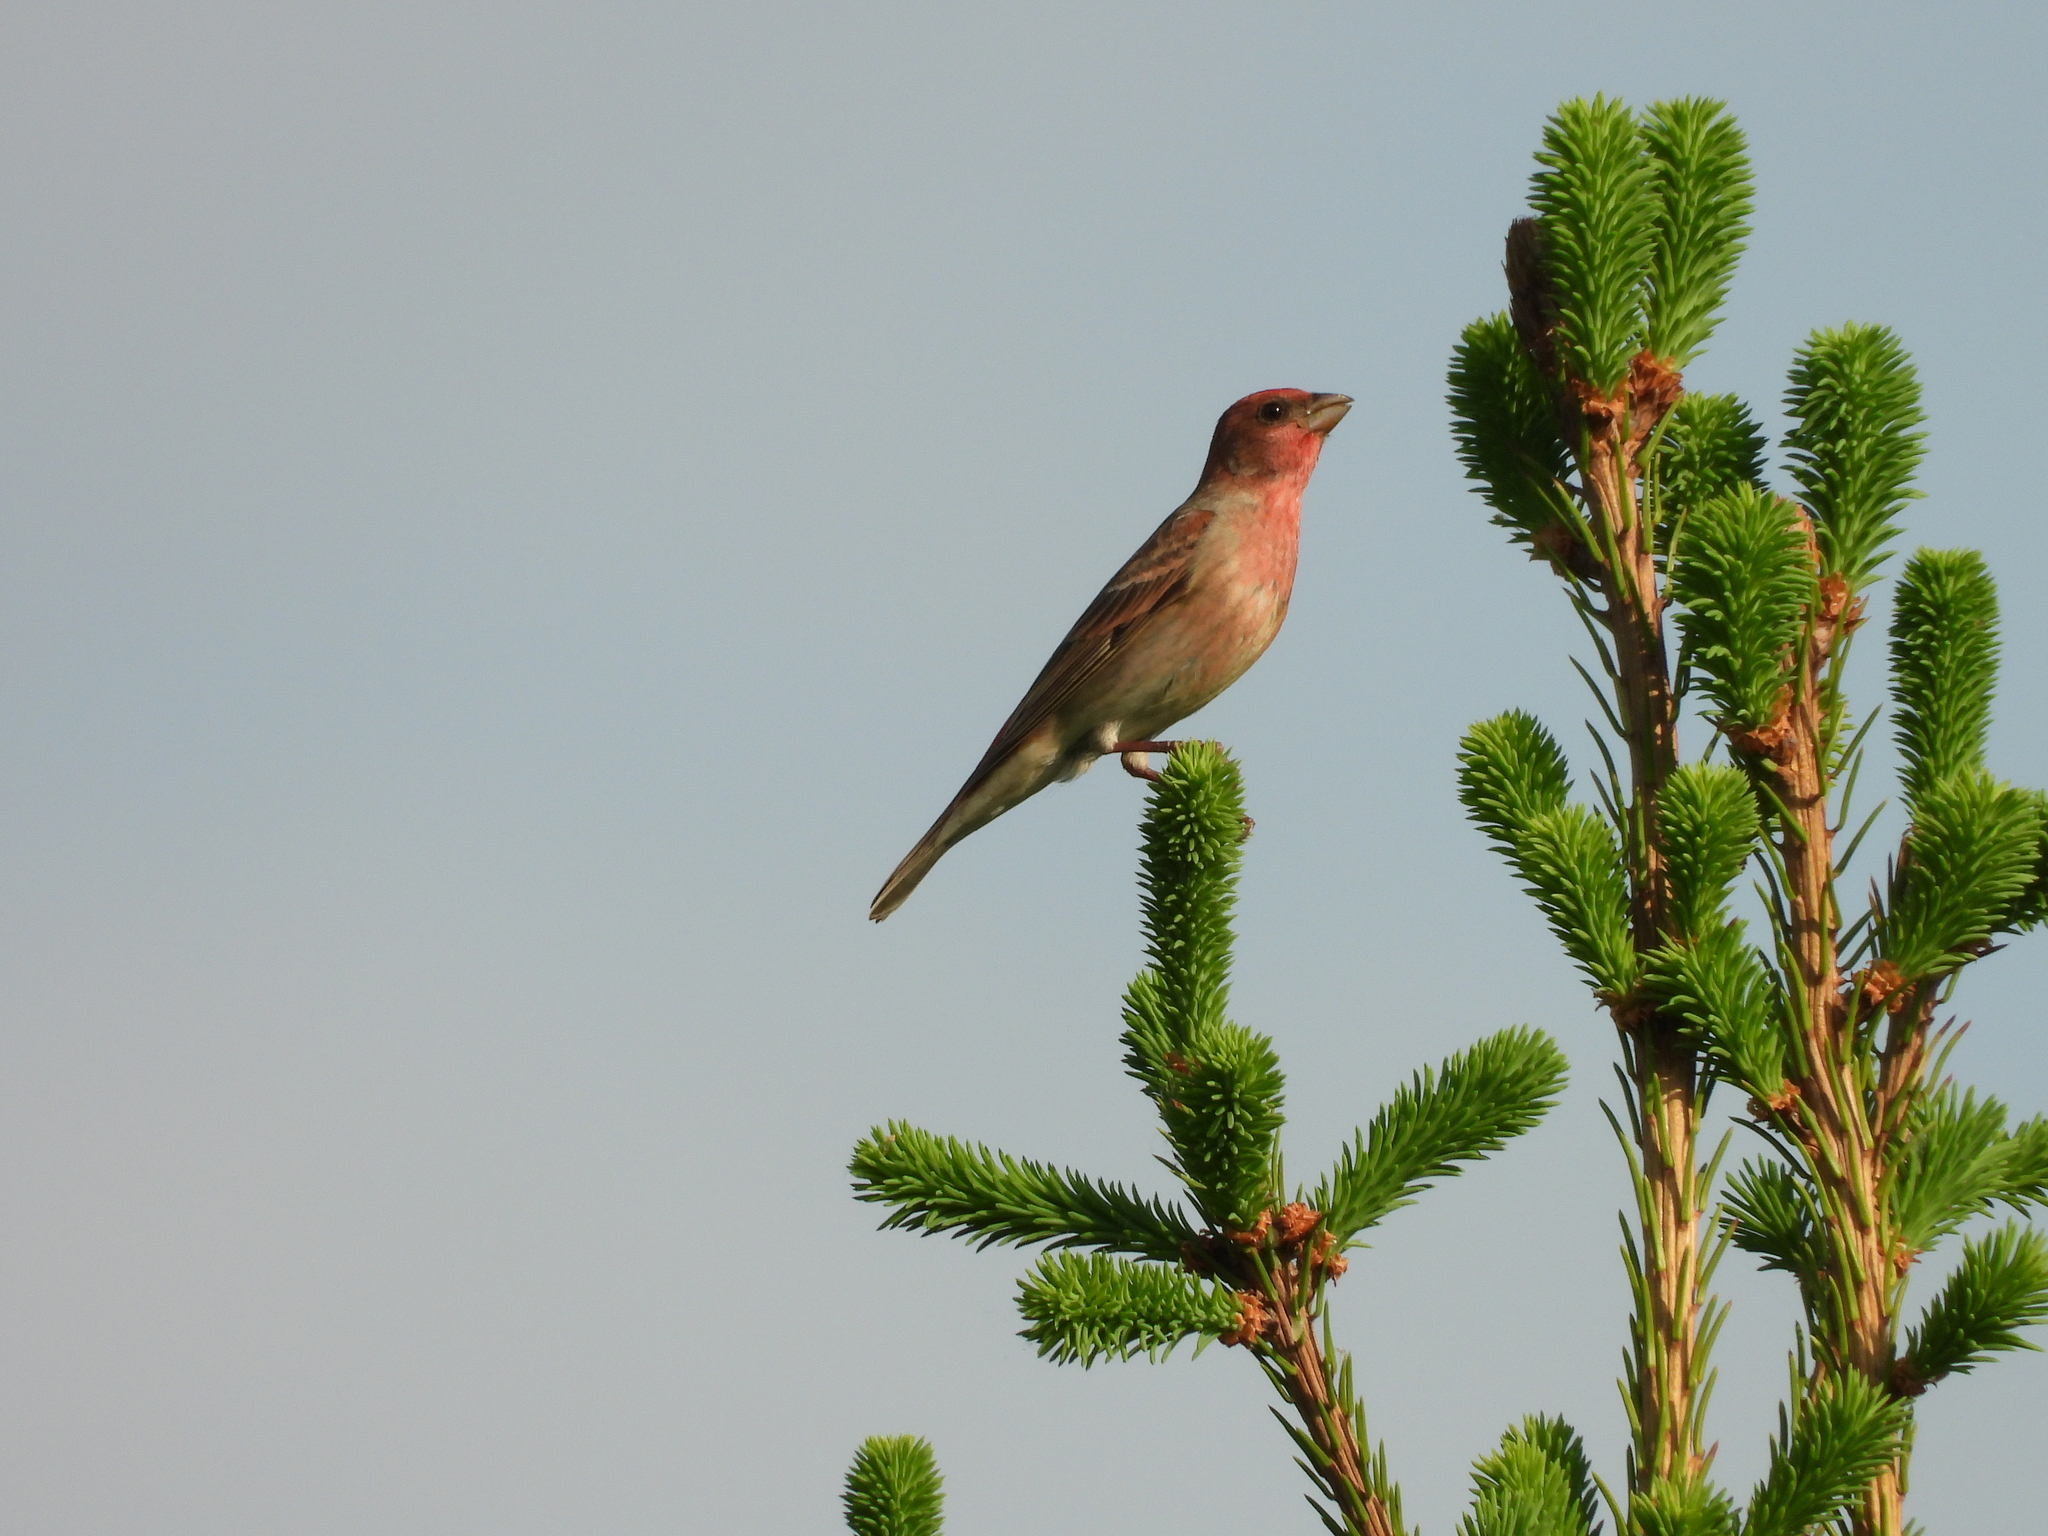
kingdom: Animalia
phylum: Chordata
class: Aves
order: Passeriformes
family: Fringillidae
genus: Carpodacus
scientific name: Carpodacus erythrinus
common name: Common rosefinch
